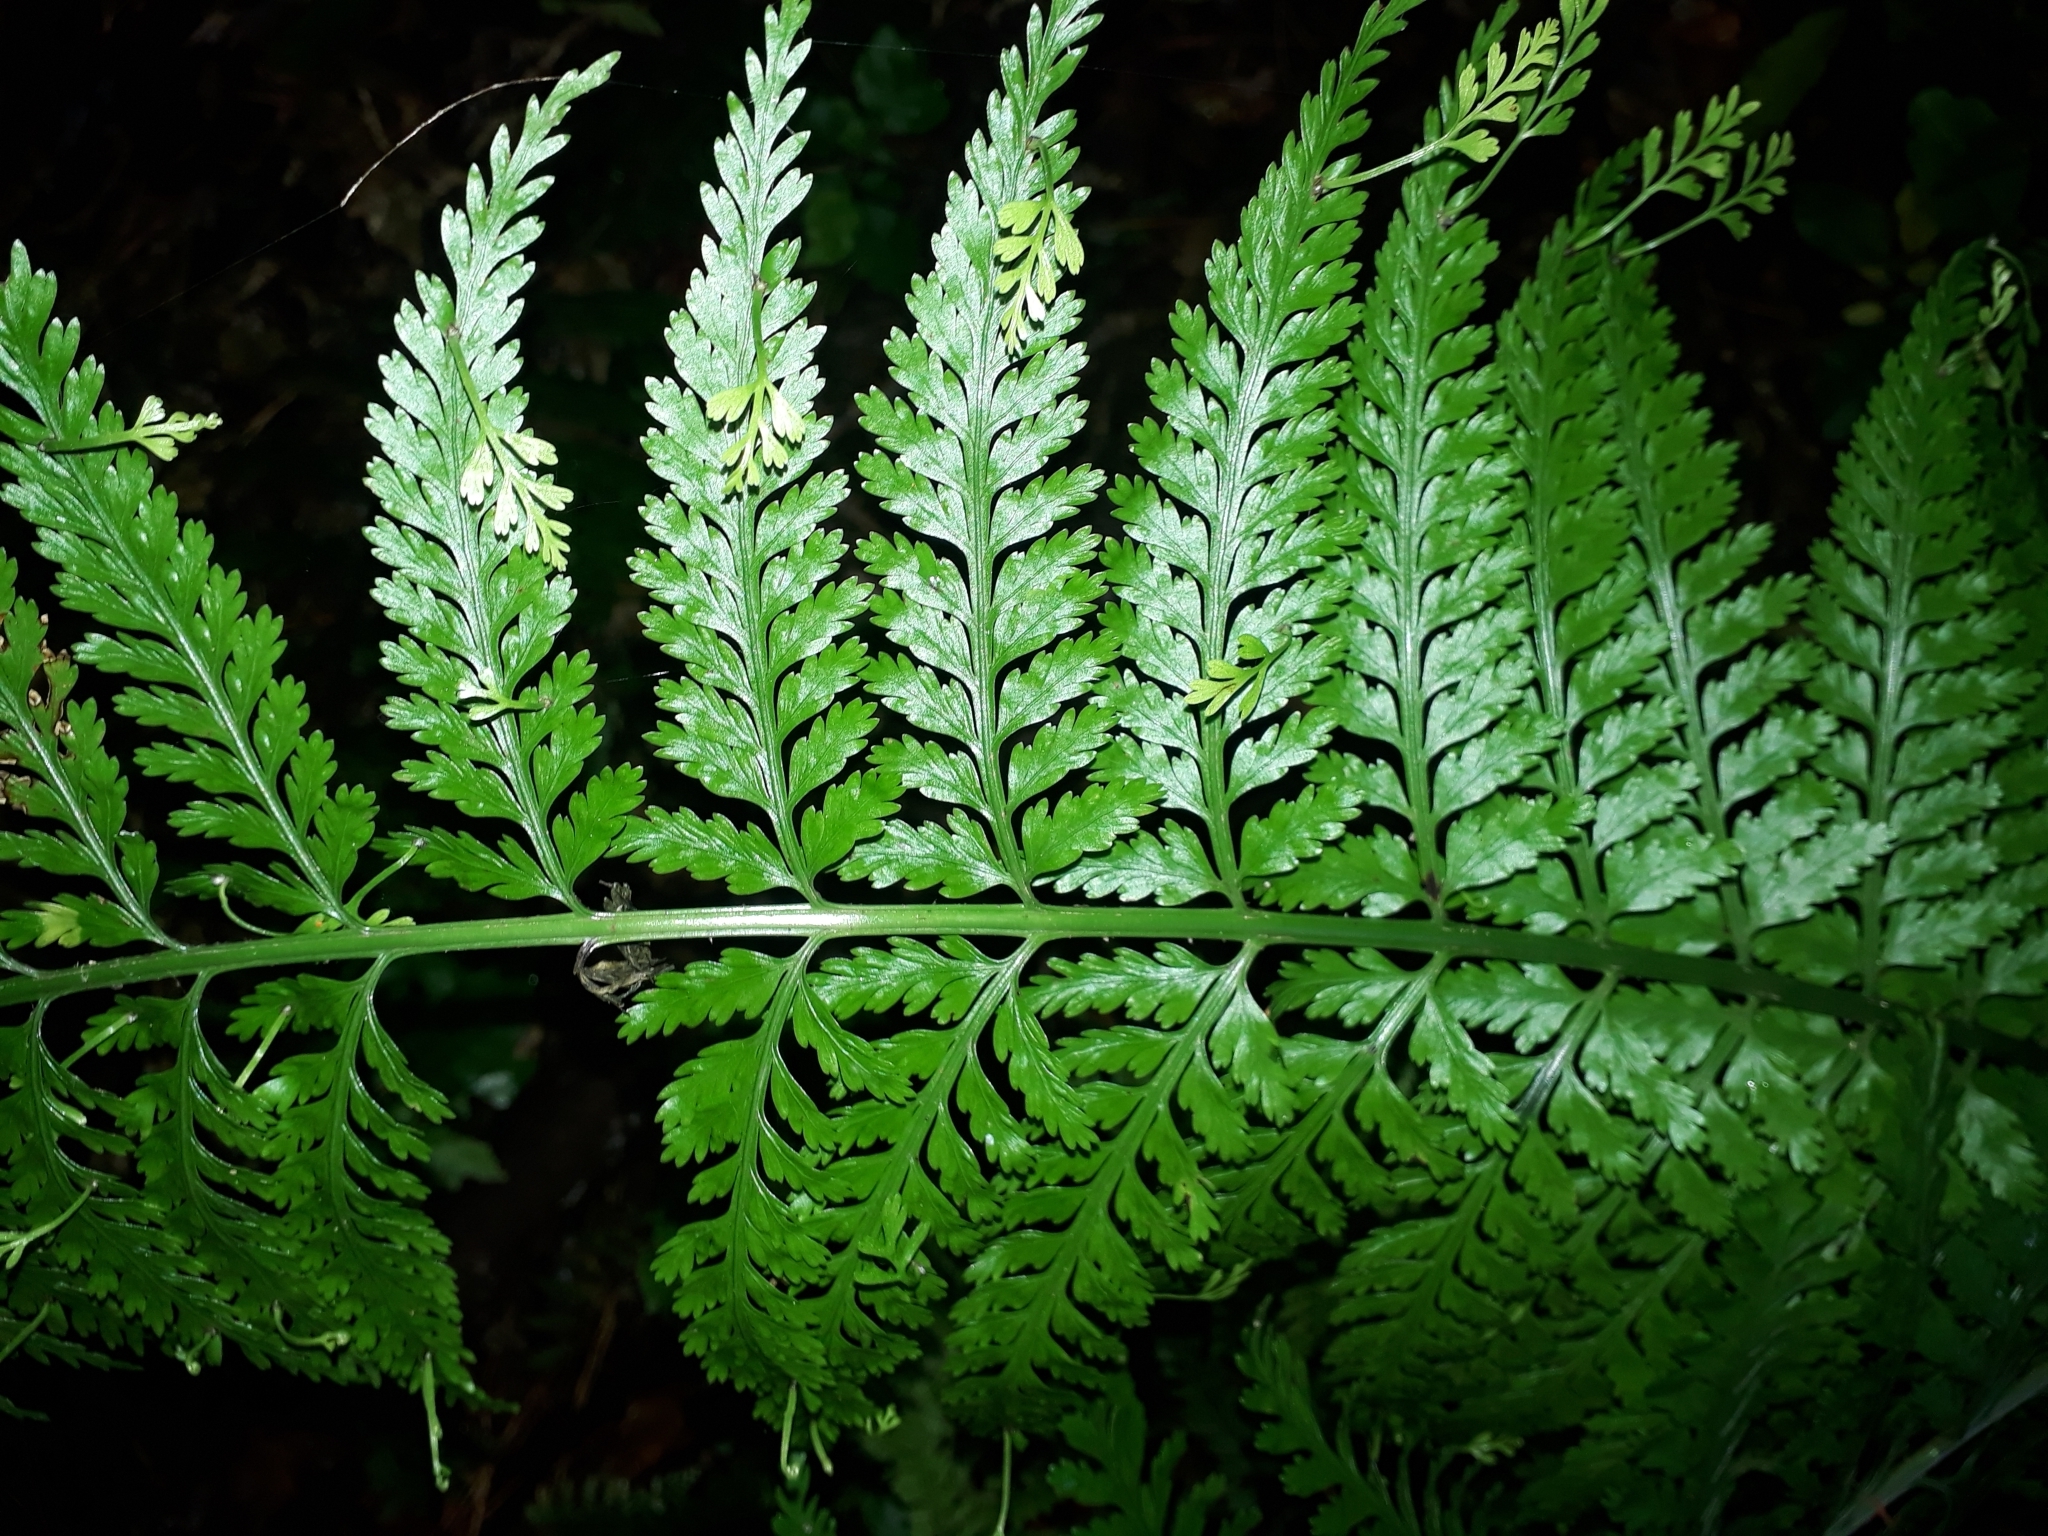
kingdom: Plantae
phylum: Tracheophyta
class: Polypodiopsida
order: Polypodiales
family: Aspleniaceae
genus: Asplenium
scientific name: Asplenium bulbiferum
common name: Mother fern
